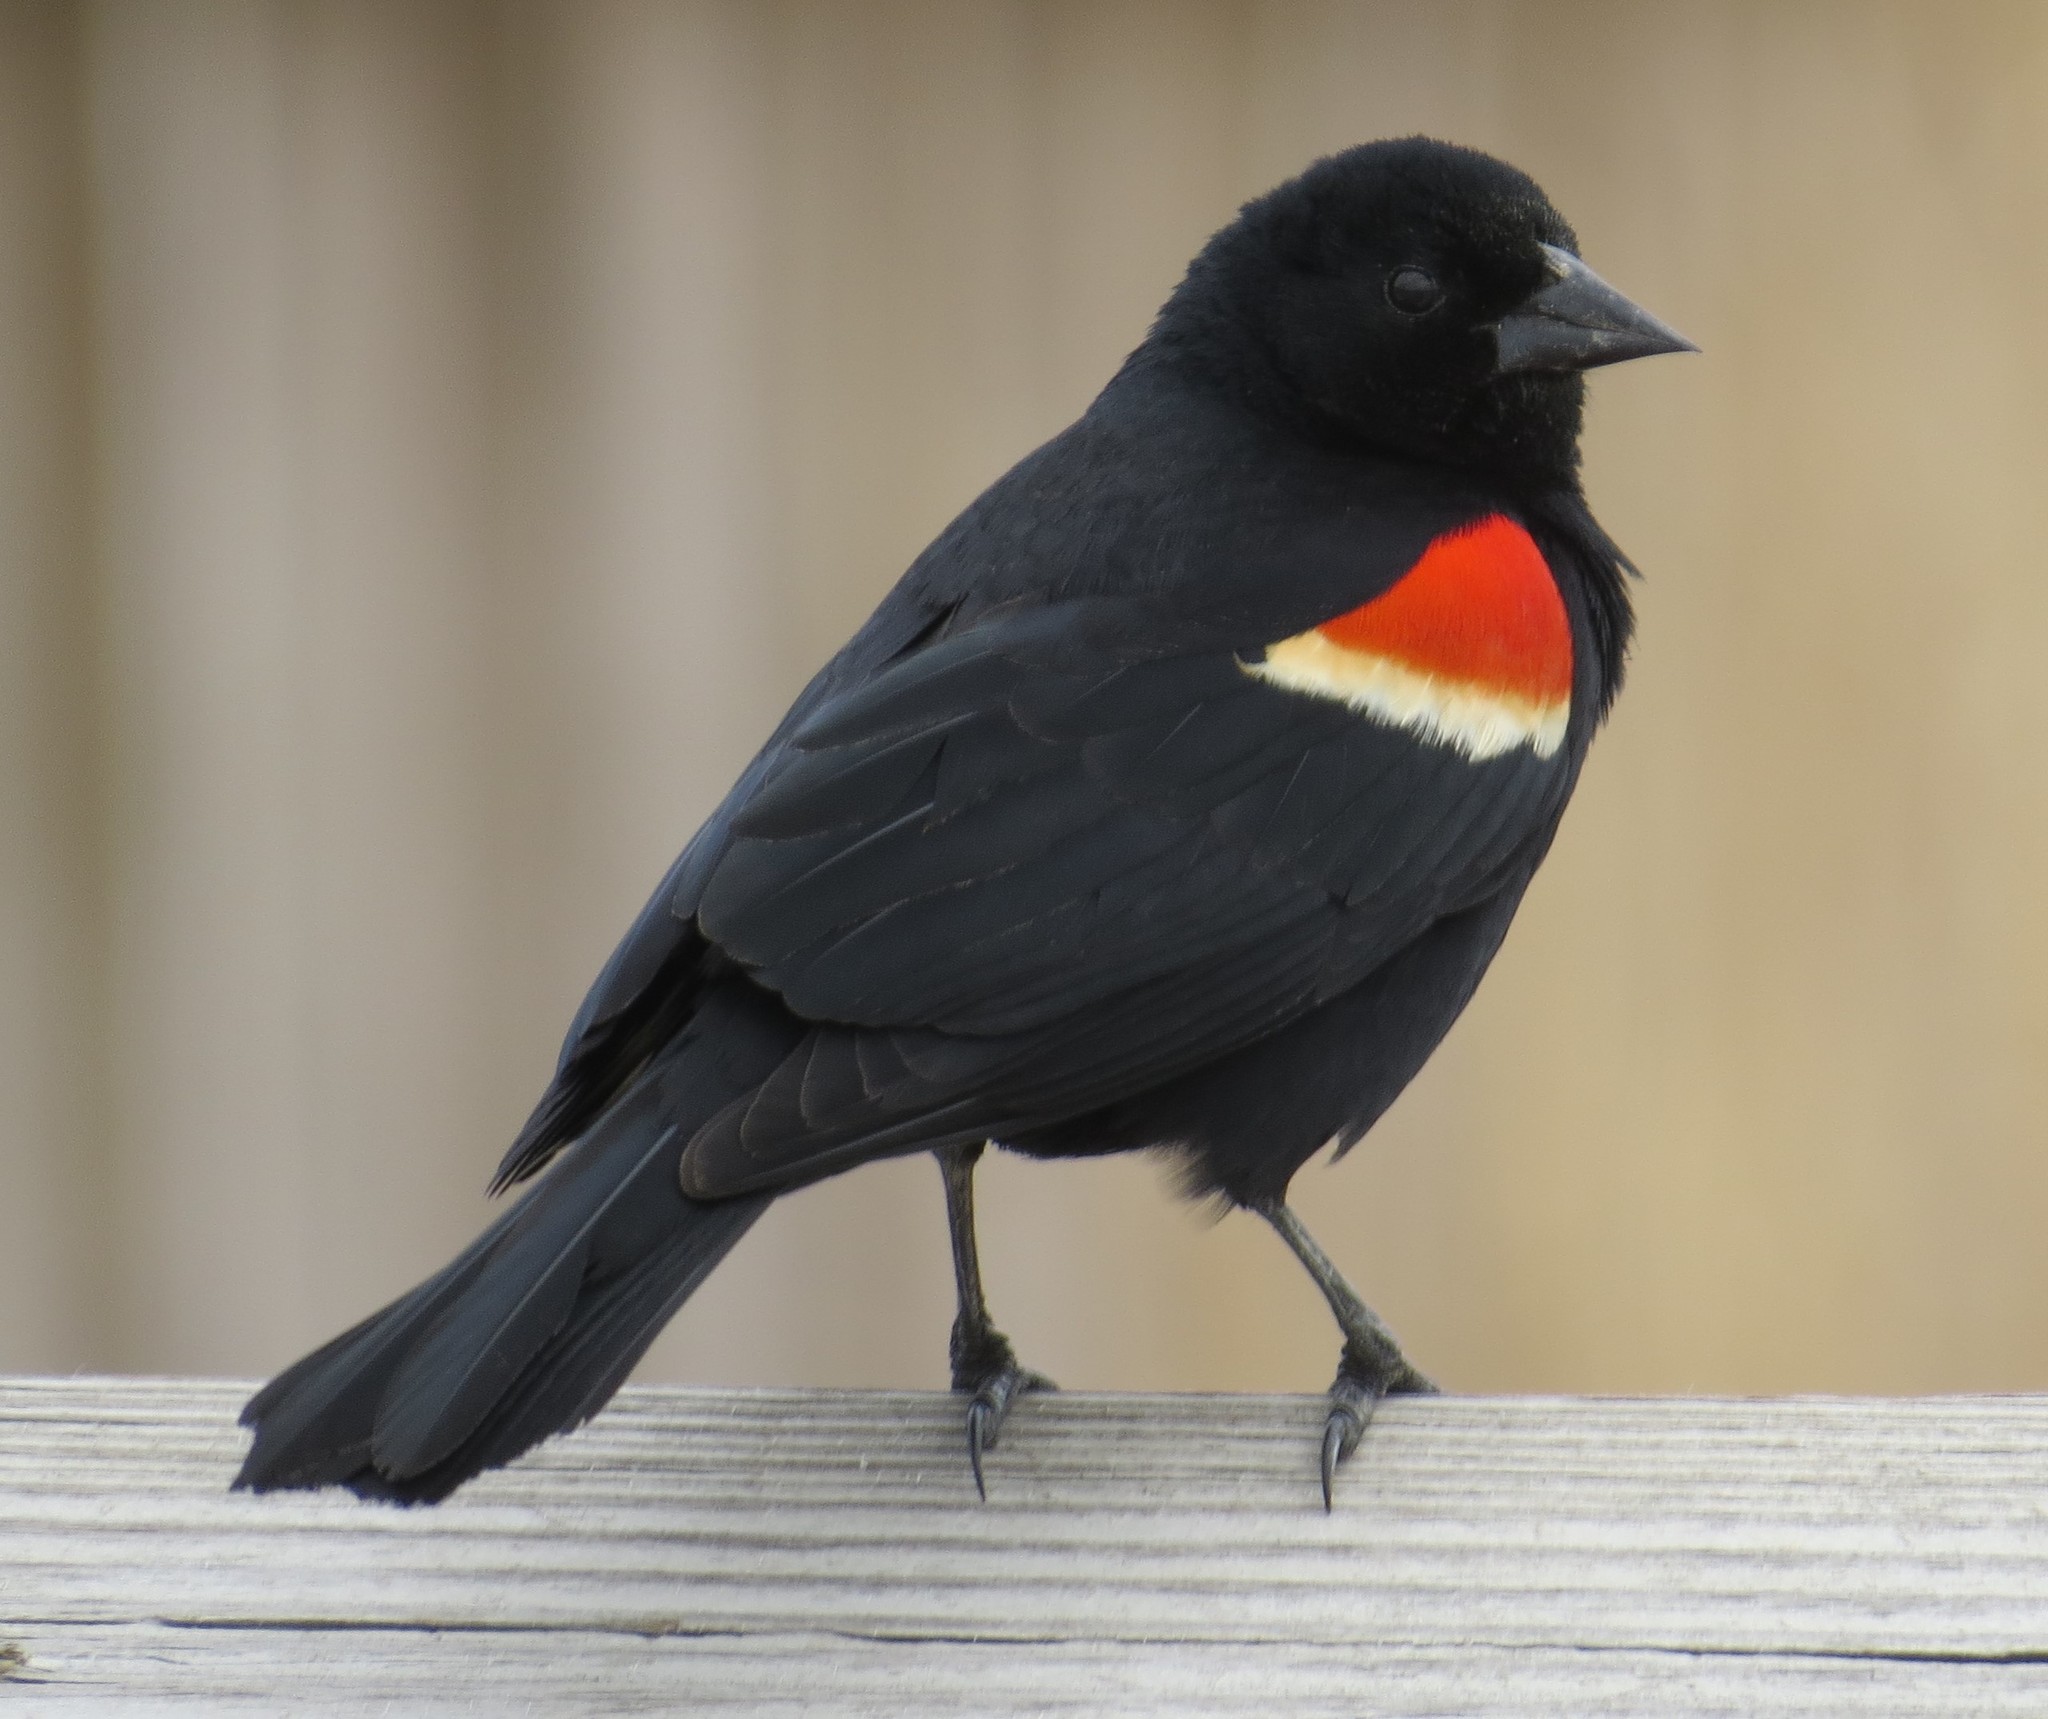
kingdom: Animalia
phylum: Chordata
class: Aves
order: Passeriformes
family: Icteridae
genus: Agelaius
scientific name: Agelaius phoeniceus
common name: Red-winged blackbird
